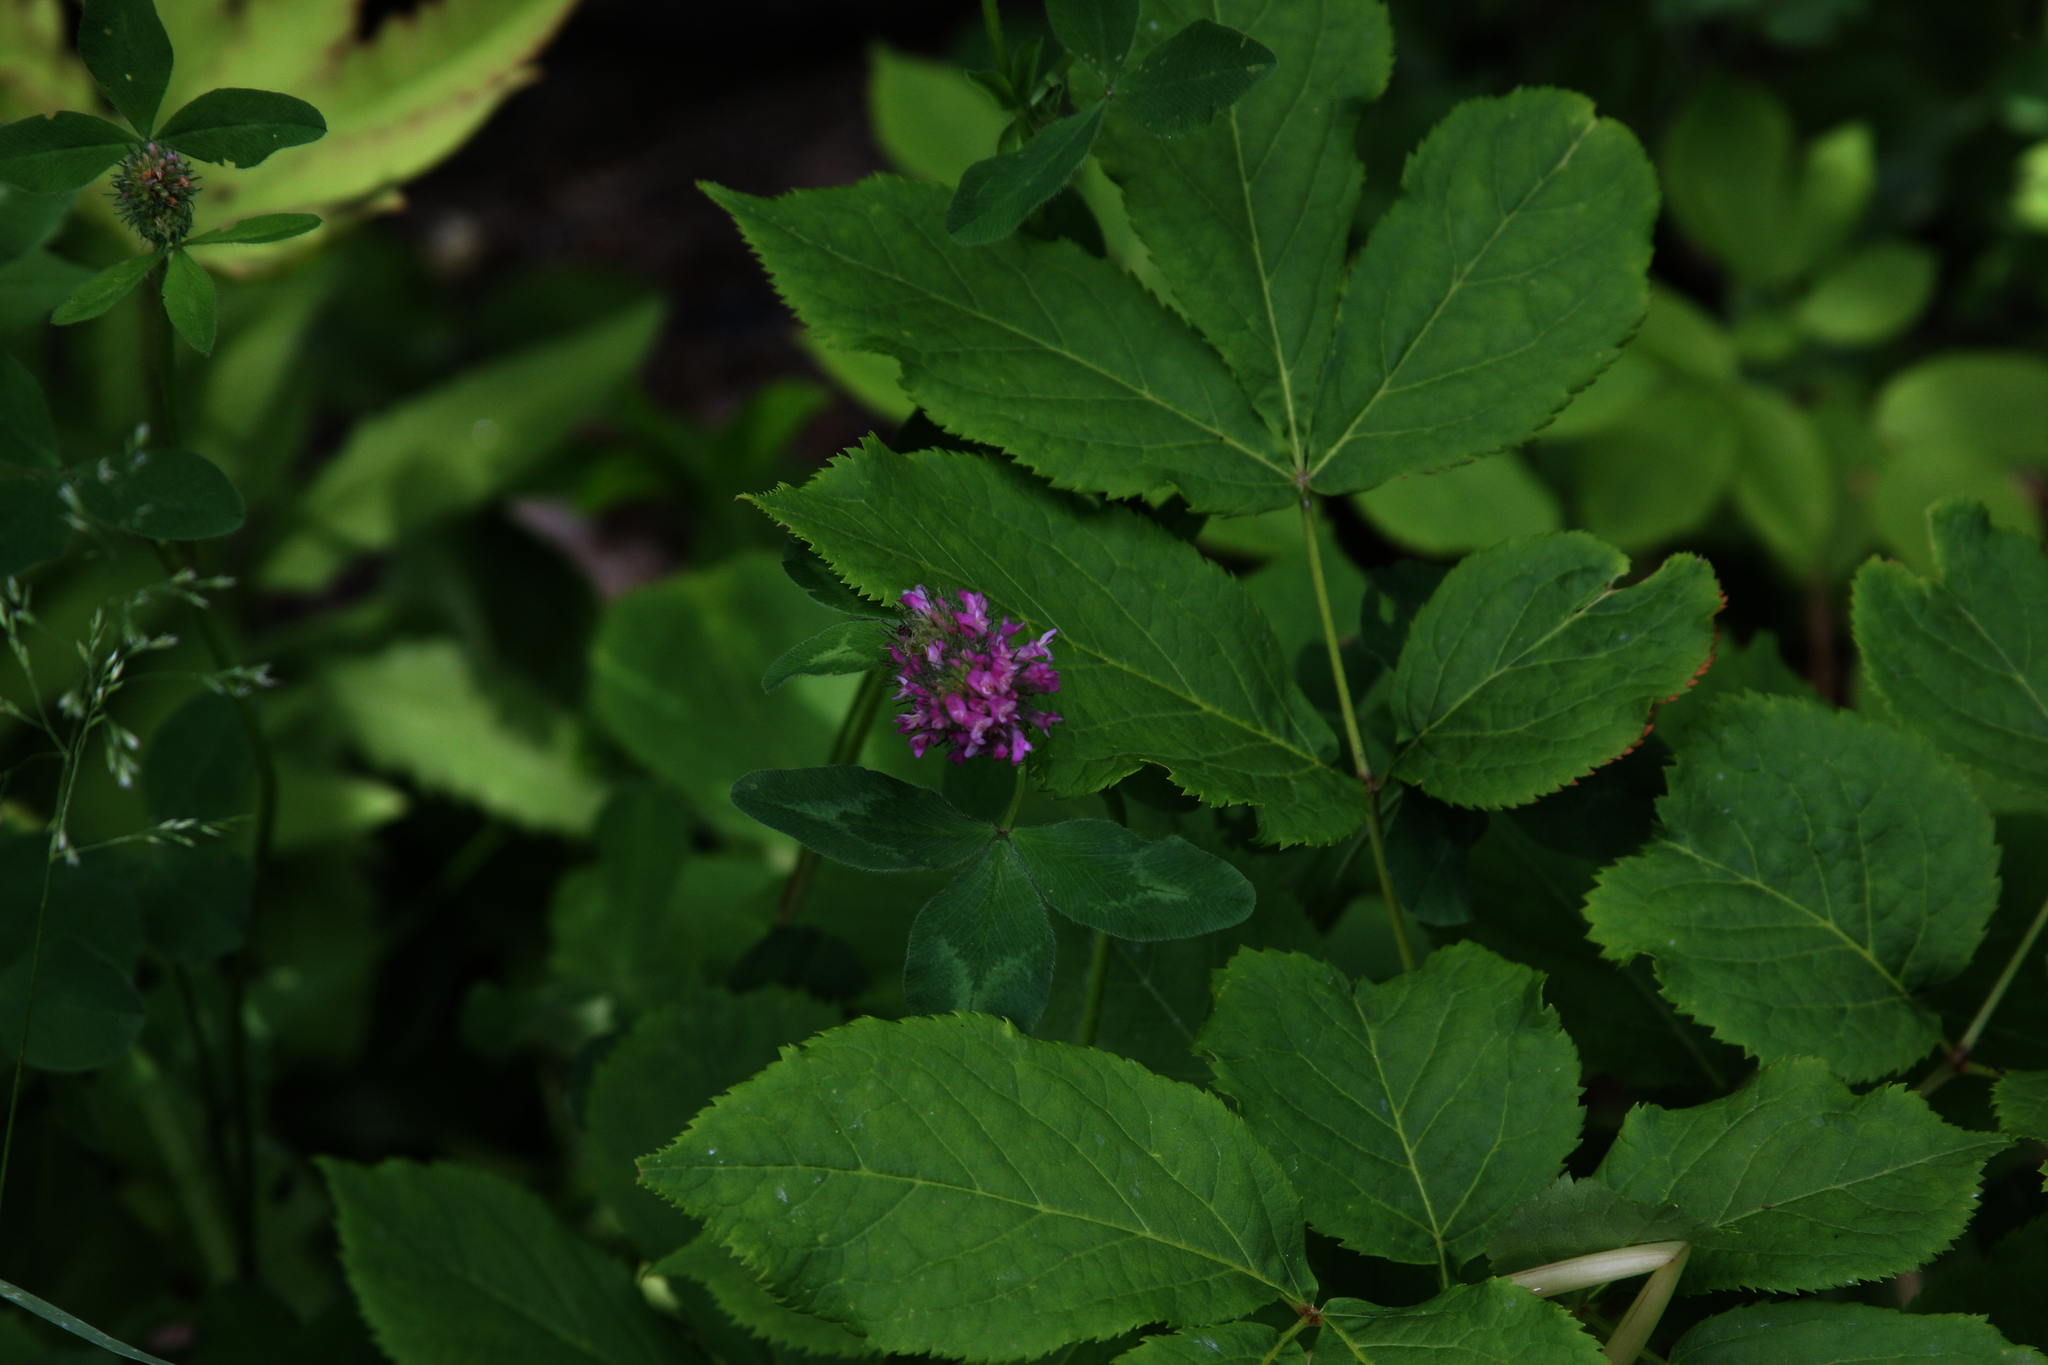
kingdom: Plantae
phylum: Tracheophyta
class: Magnoliopsida
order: Apiales
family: Araliaceae
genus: Aralia
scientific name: Aralia nudicaulis
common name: Wild sarsaparilla
